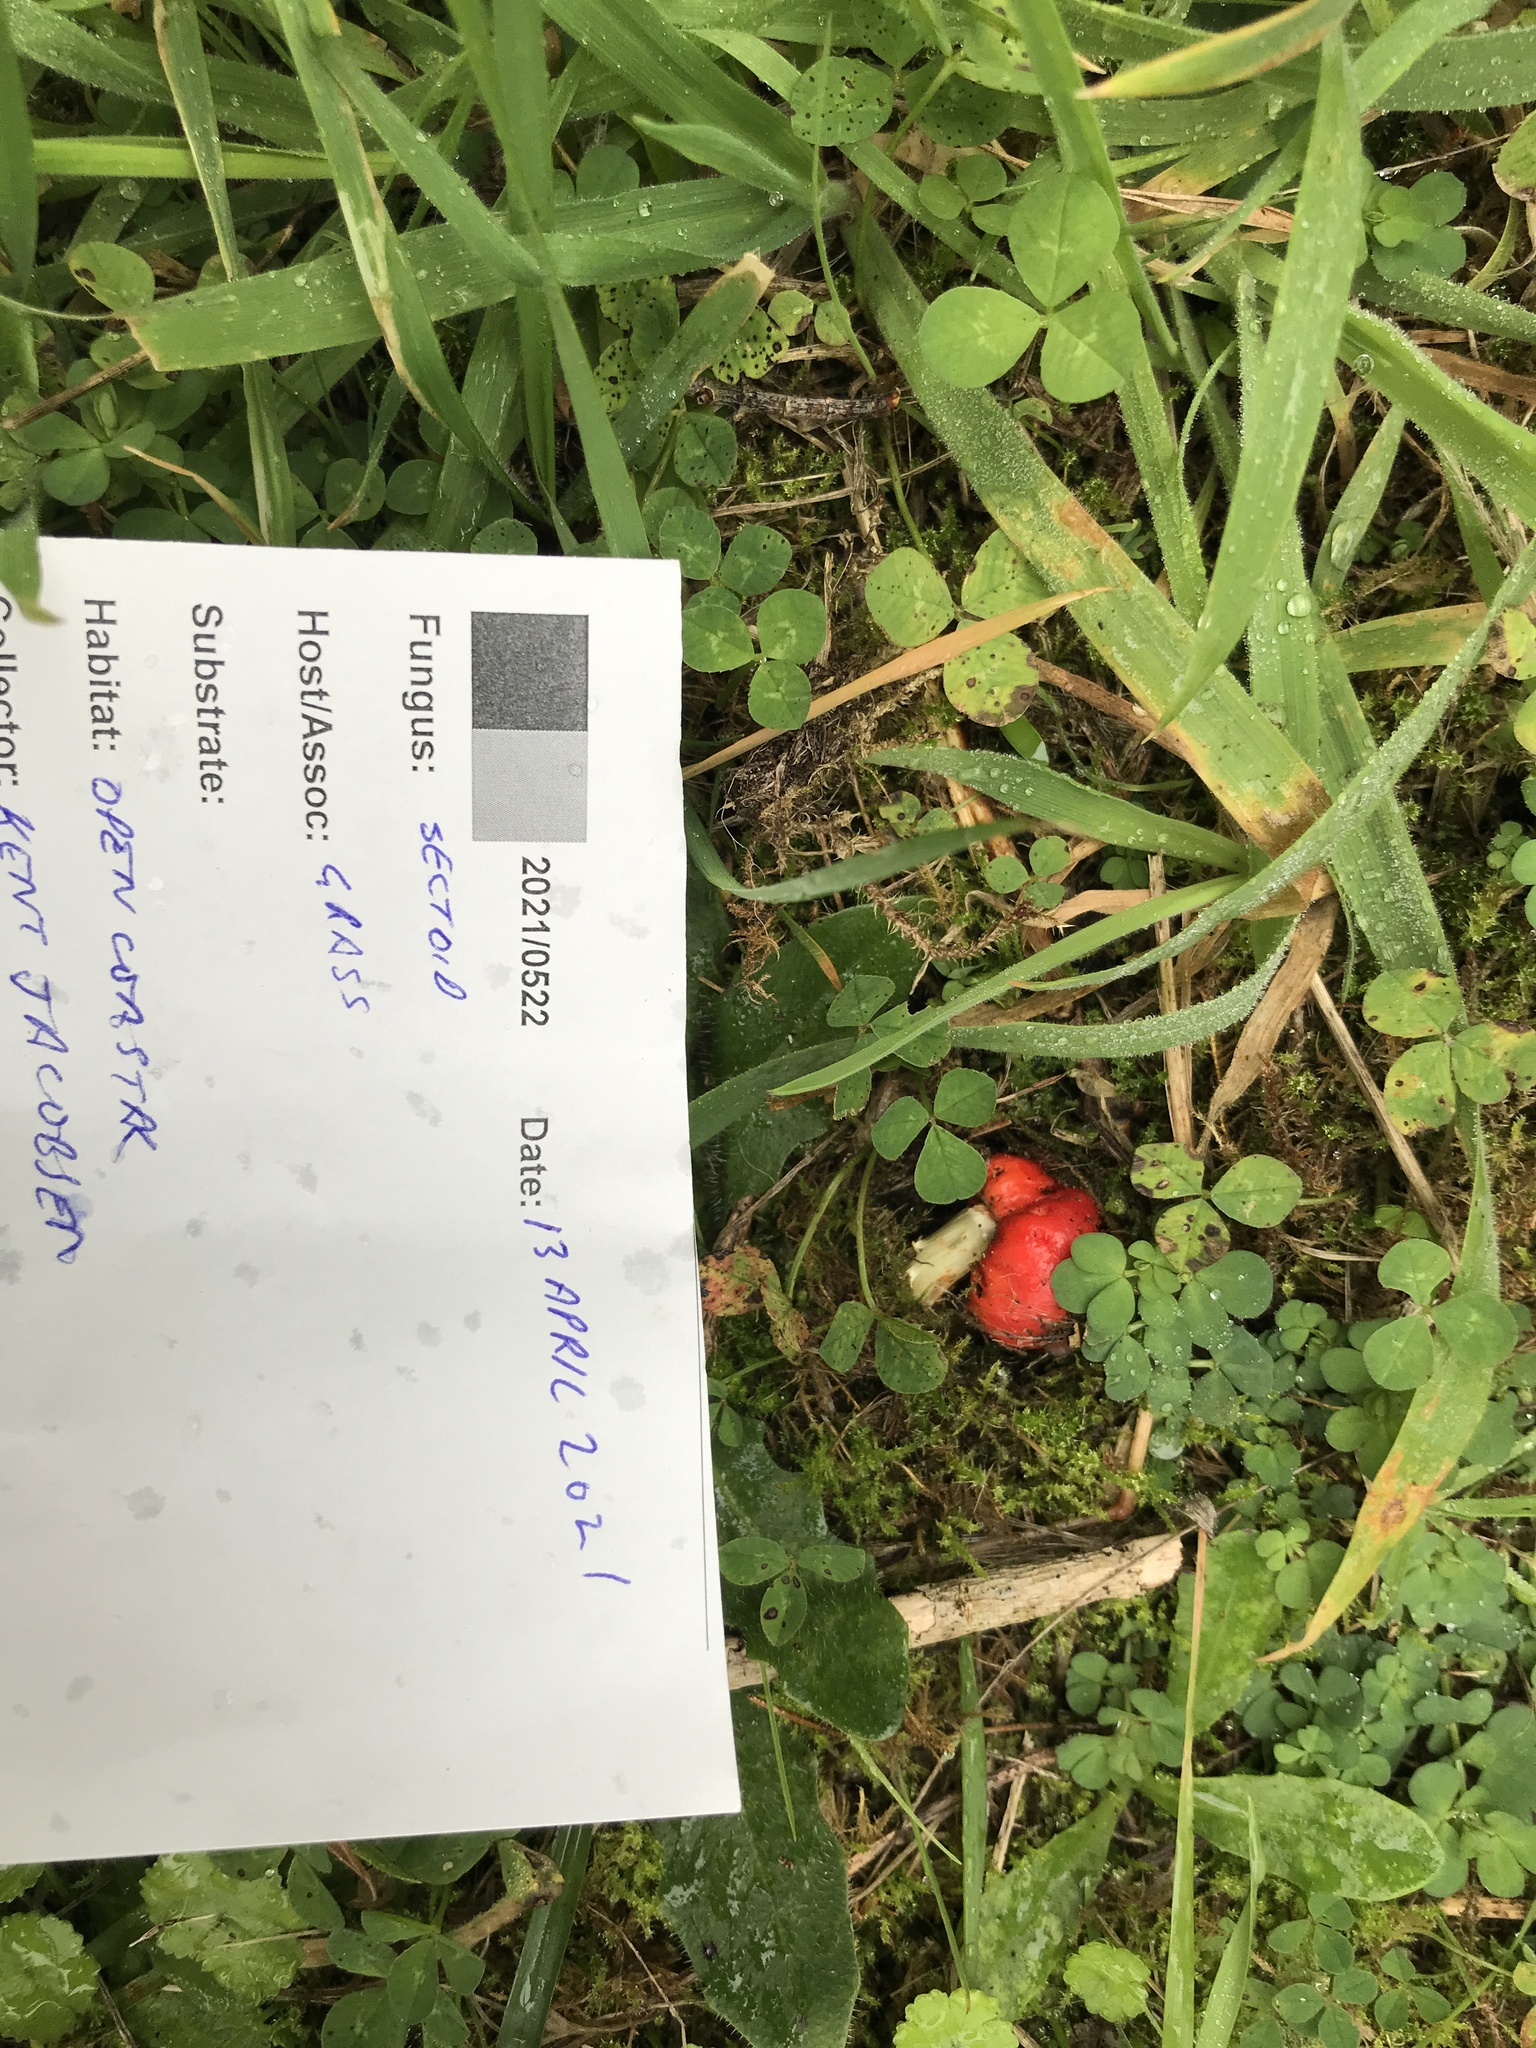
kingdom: Fungi
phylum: Basidiomycota
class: Agaricomycetes
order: Agaricales
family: Strophariaceae
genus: Leratiomyces
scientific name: Leratiomyces erythrocephalus
